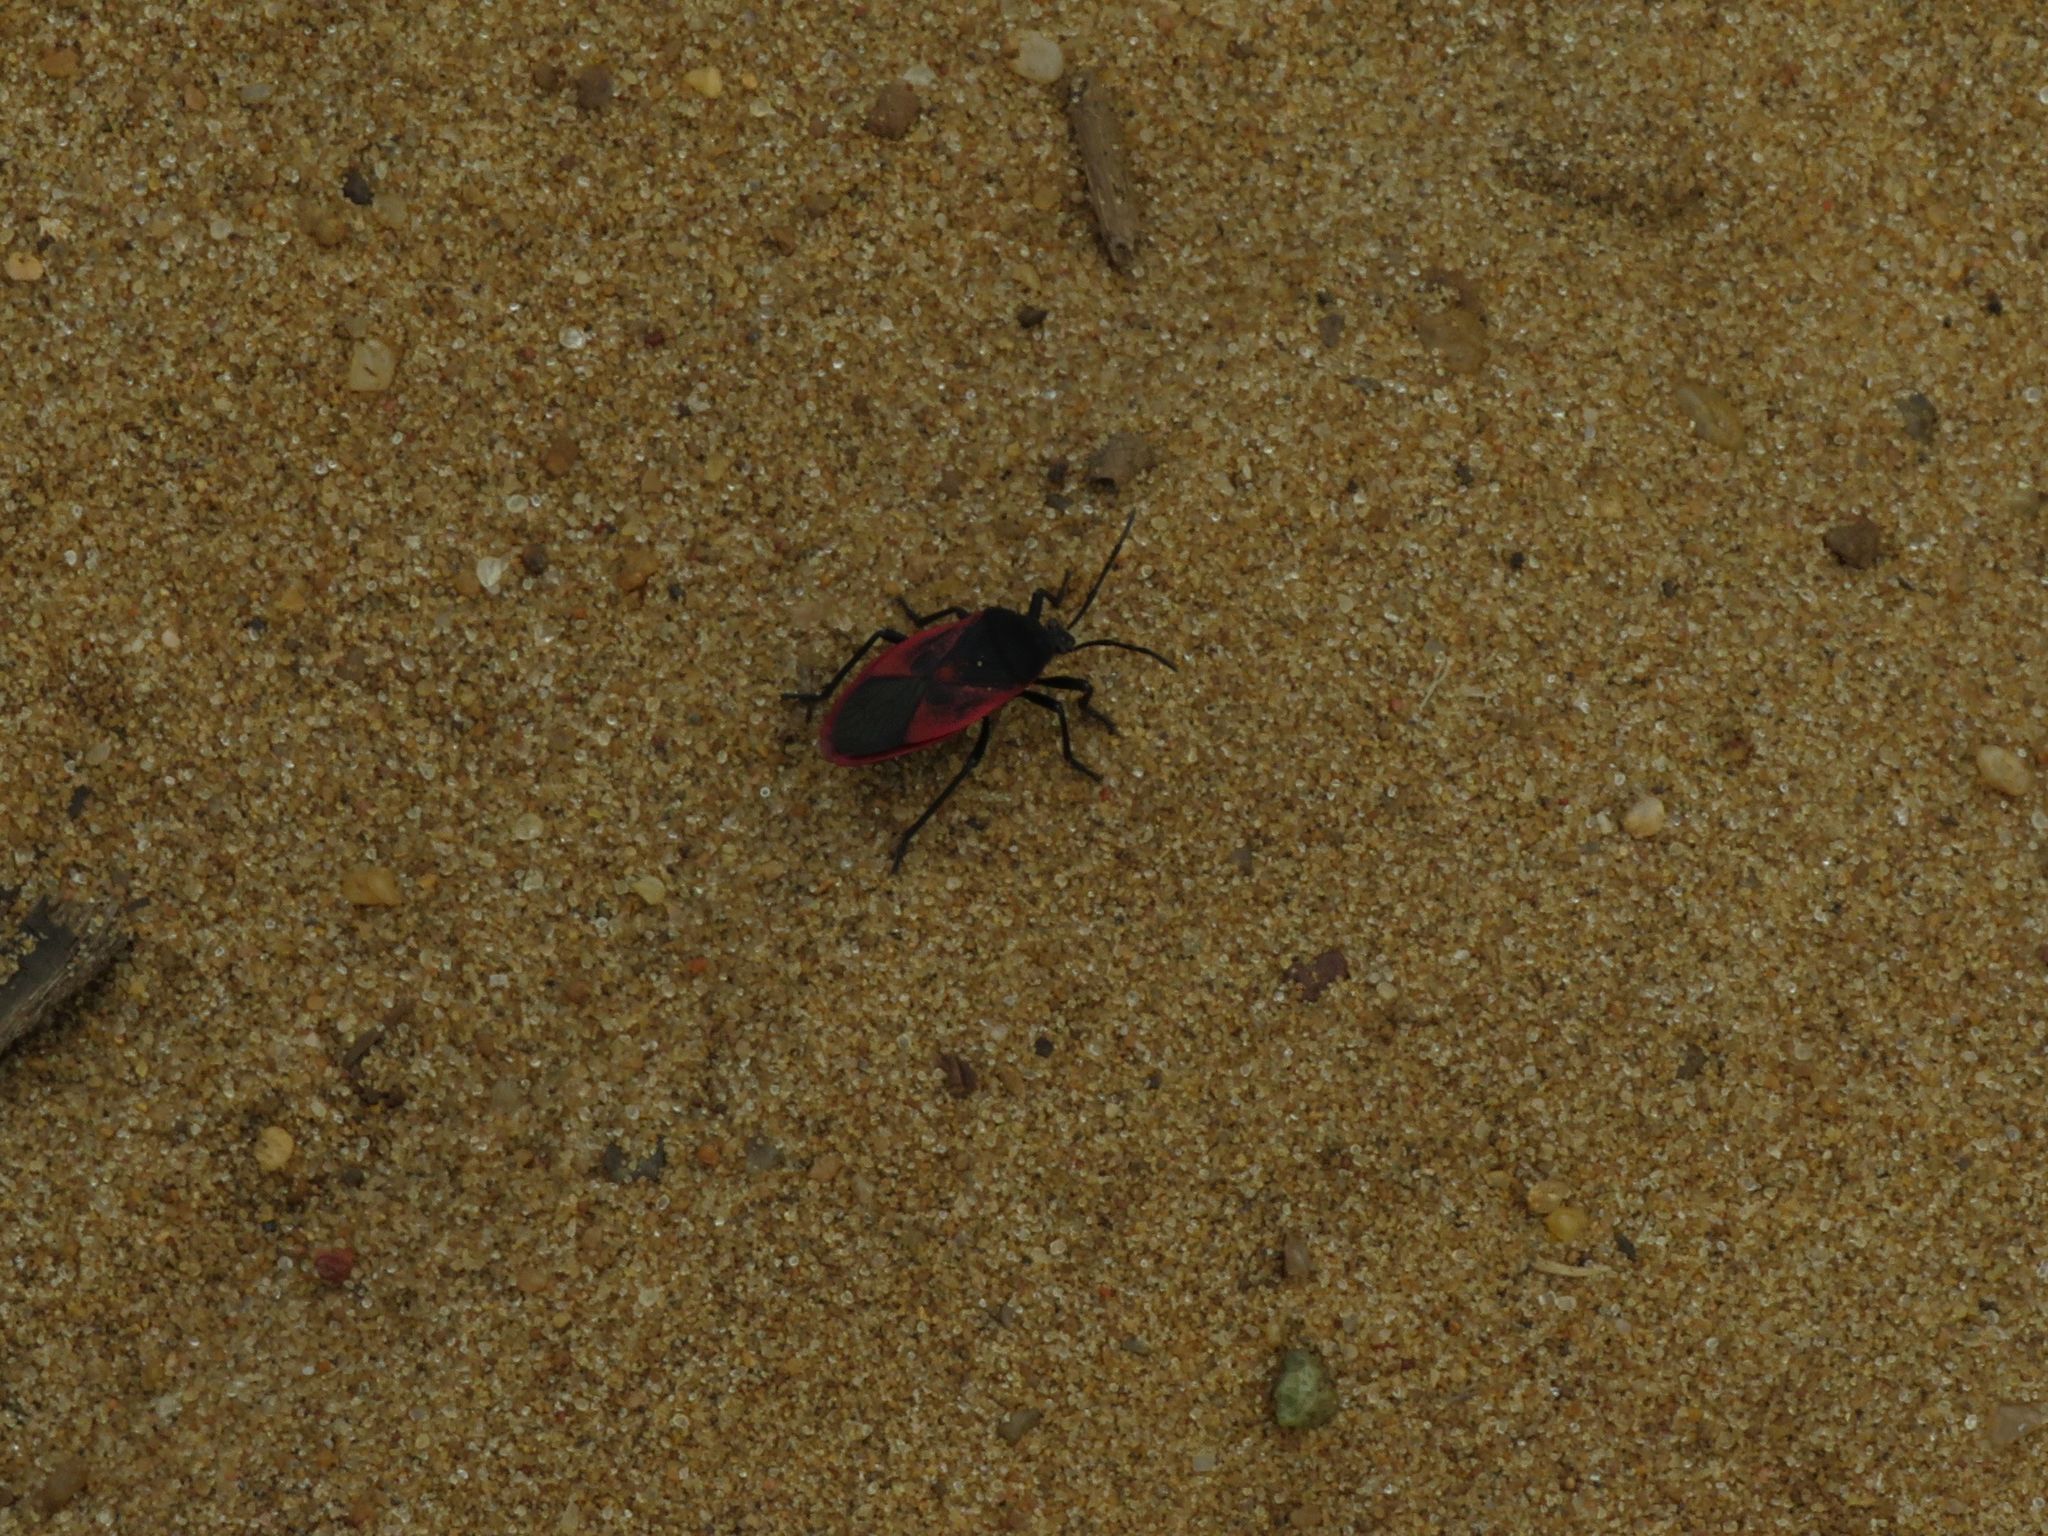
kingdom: Animalia
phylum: Arthropoda
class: Insecta
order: Hemiptera
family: Largidae
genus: Largus
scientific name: Largus rufipennis
